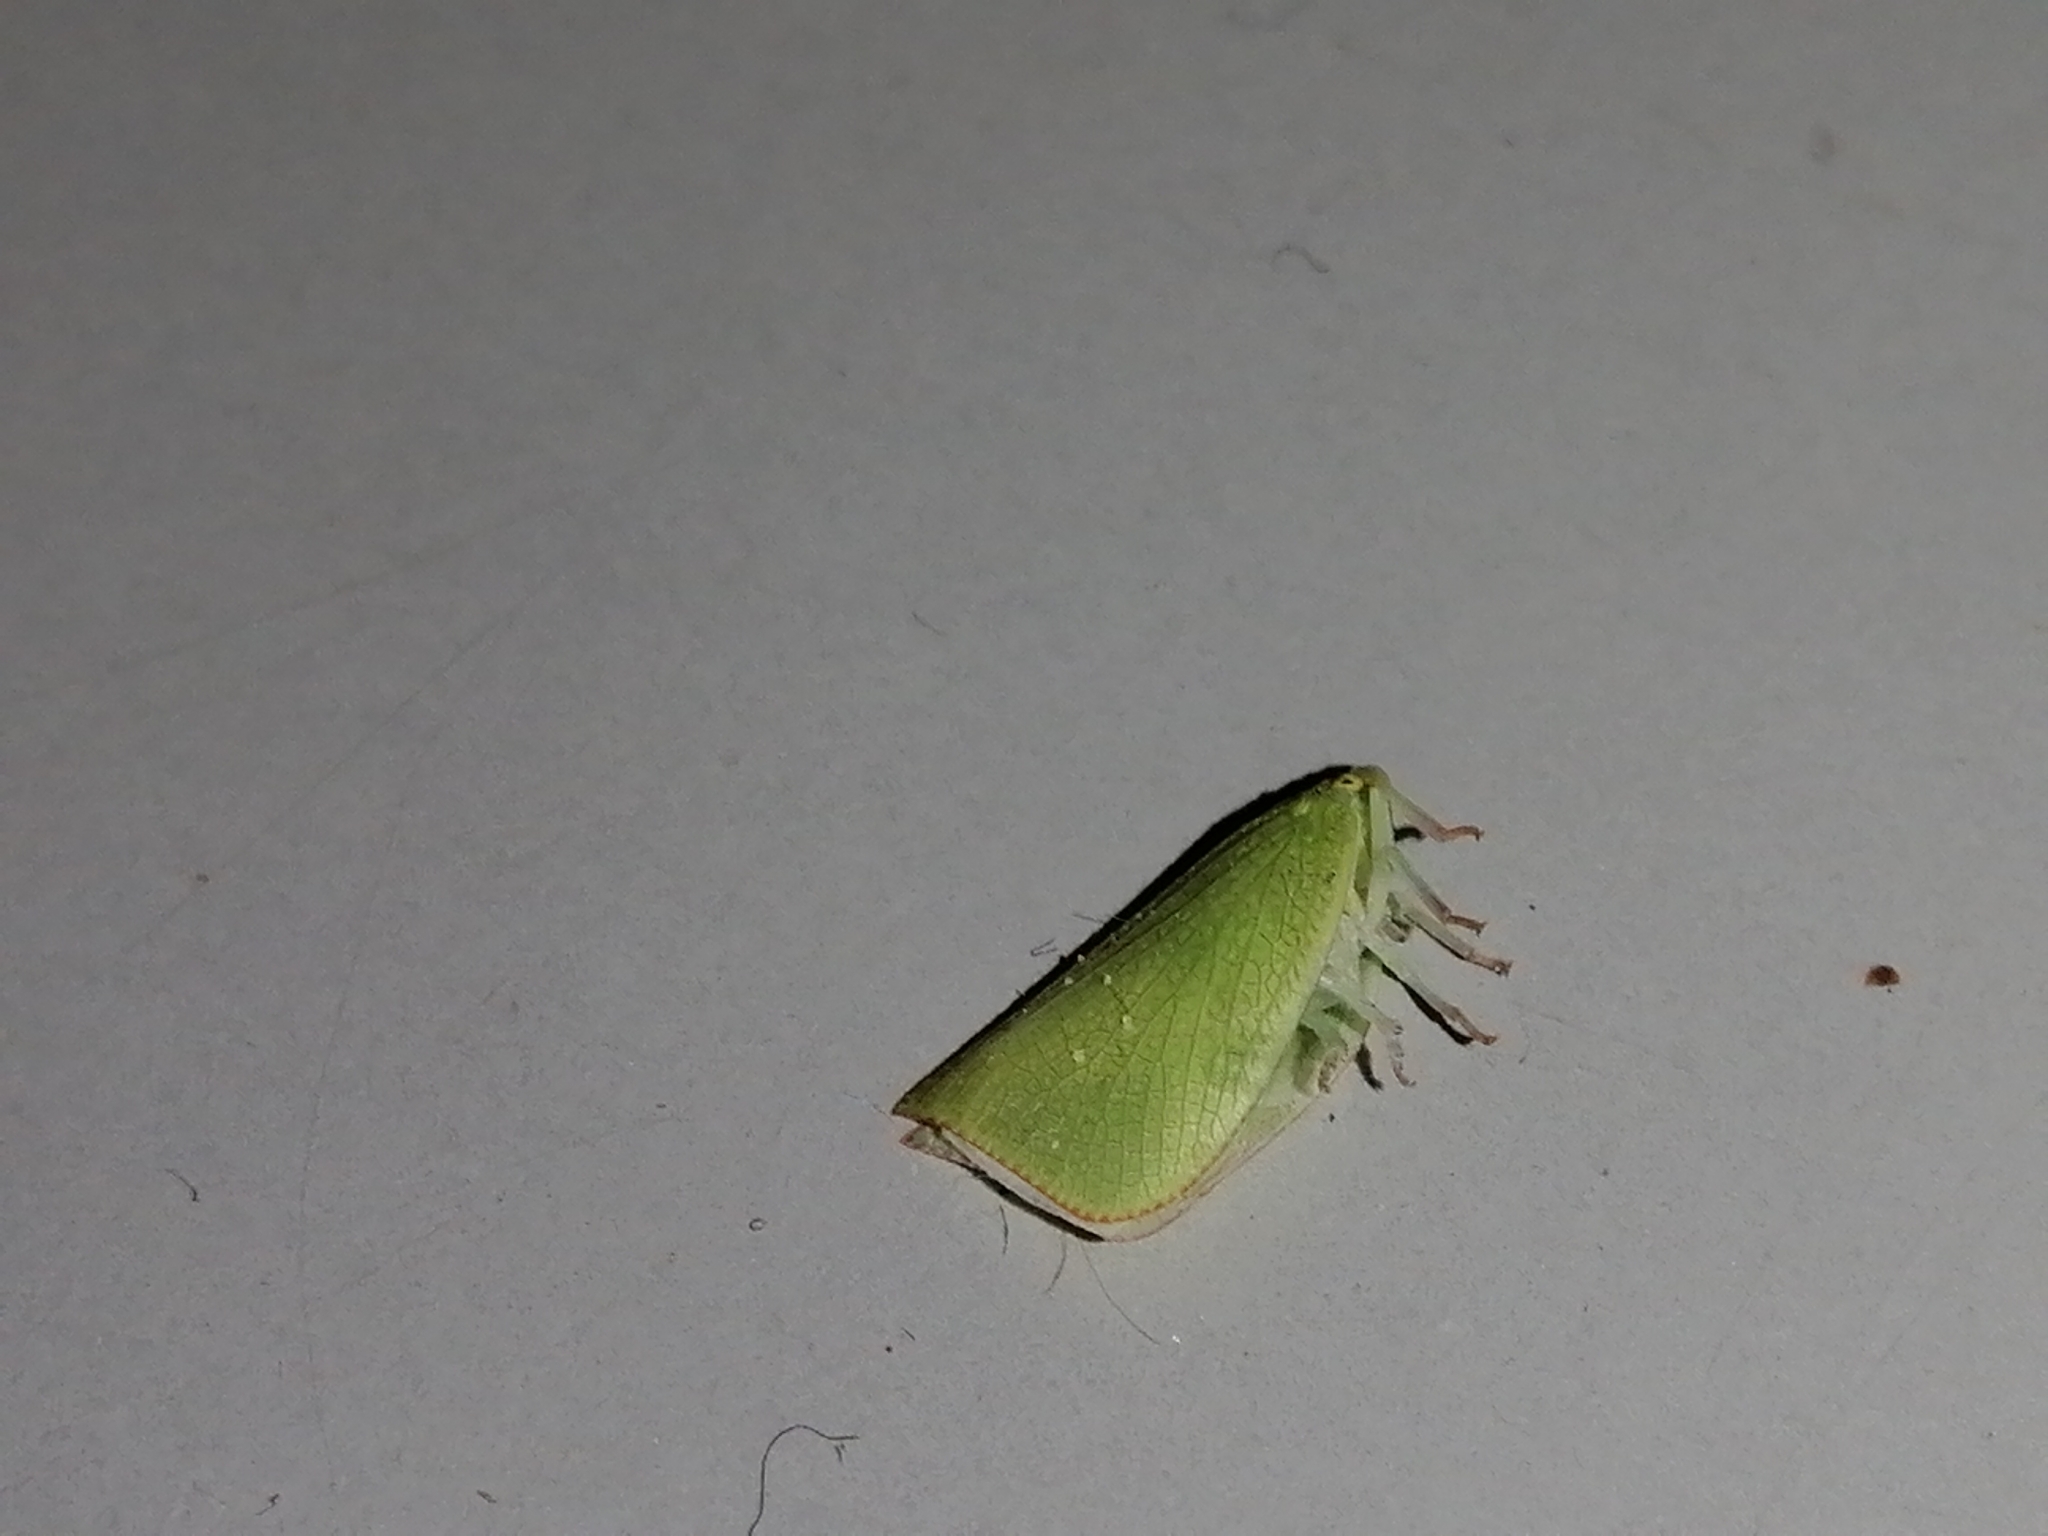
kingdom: Animalia
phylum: Arthropoda
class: Insecta
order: Hemiptera
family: Flatidae
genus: Siphanta
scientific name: Siphanta acuta
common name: Torpedo bug
